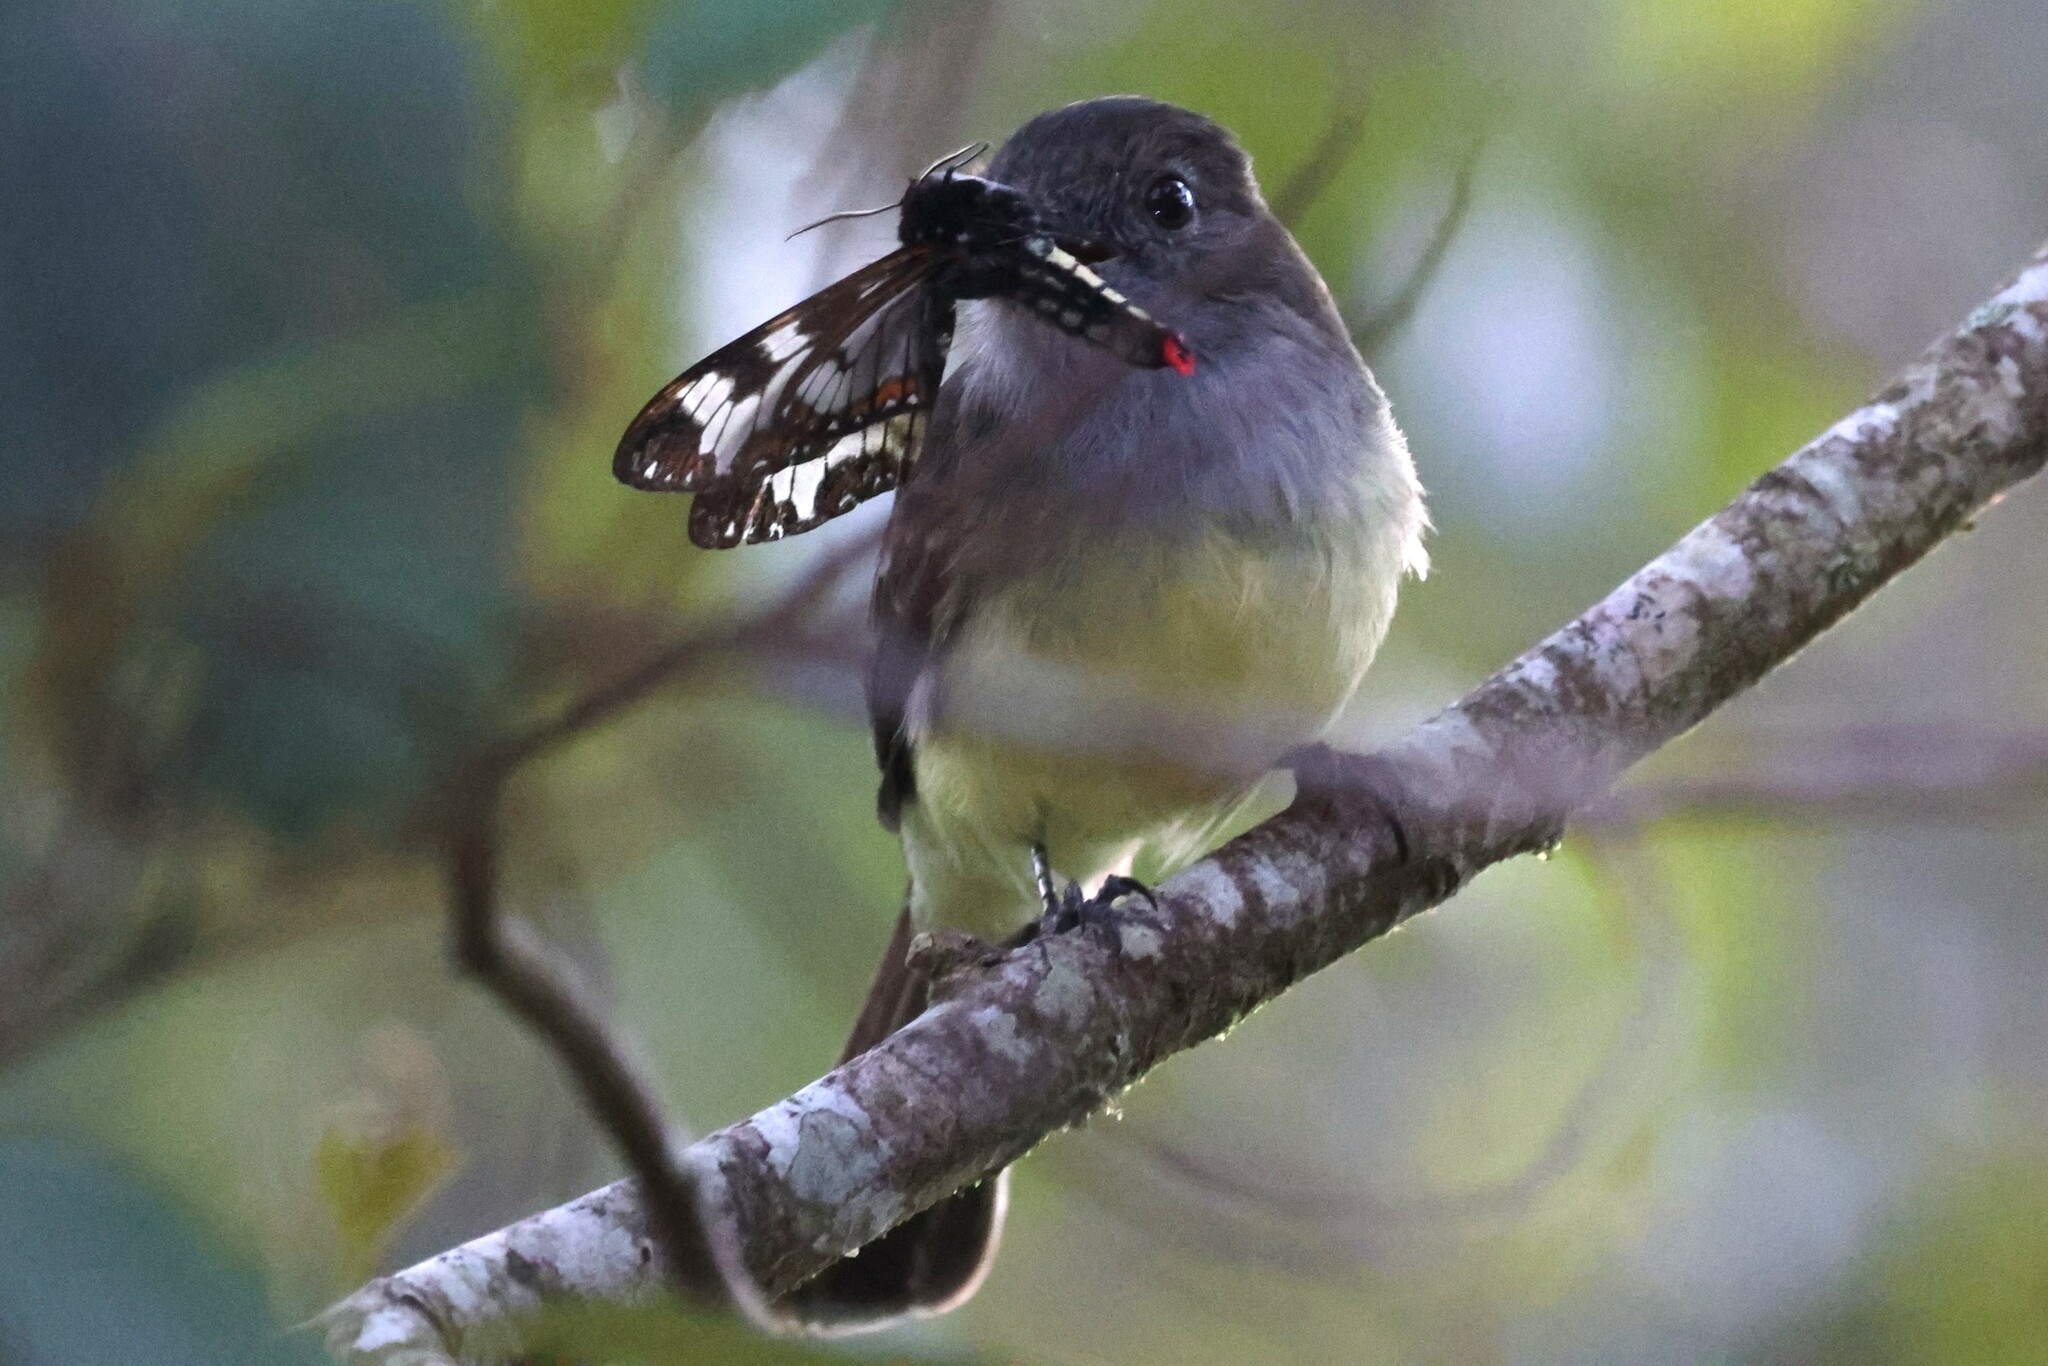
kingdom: Animalia
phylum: Chordata
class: Aves
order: Passeriformes
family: Tyrannidae
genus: Myiarchus
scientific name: Myiarchus cephalotes
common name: Pale-edged flycatcher
